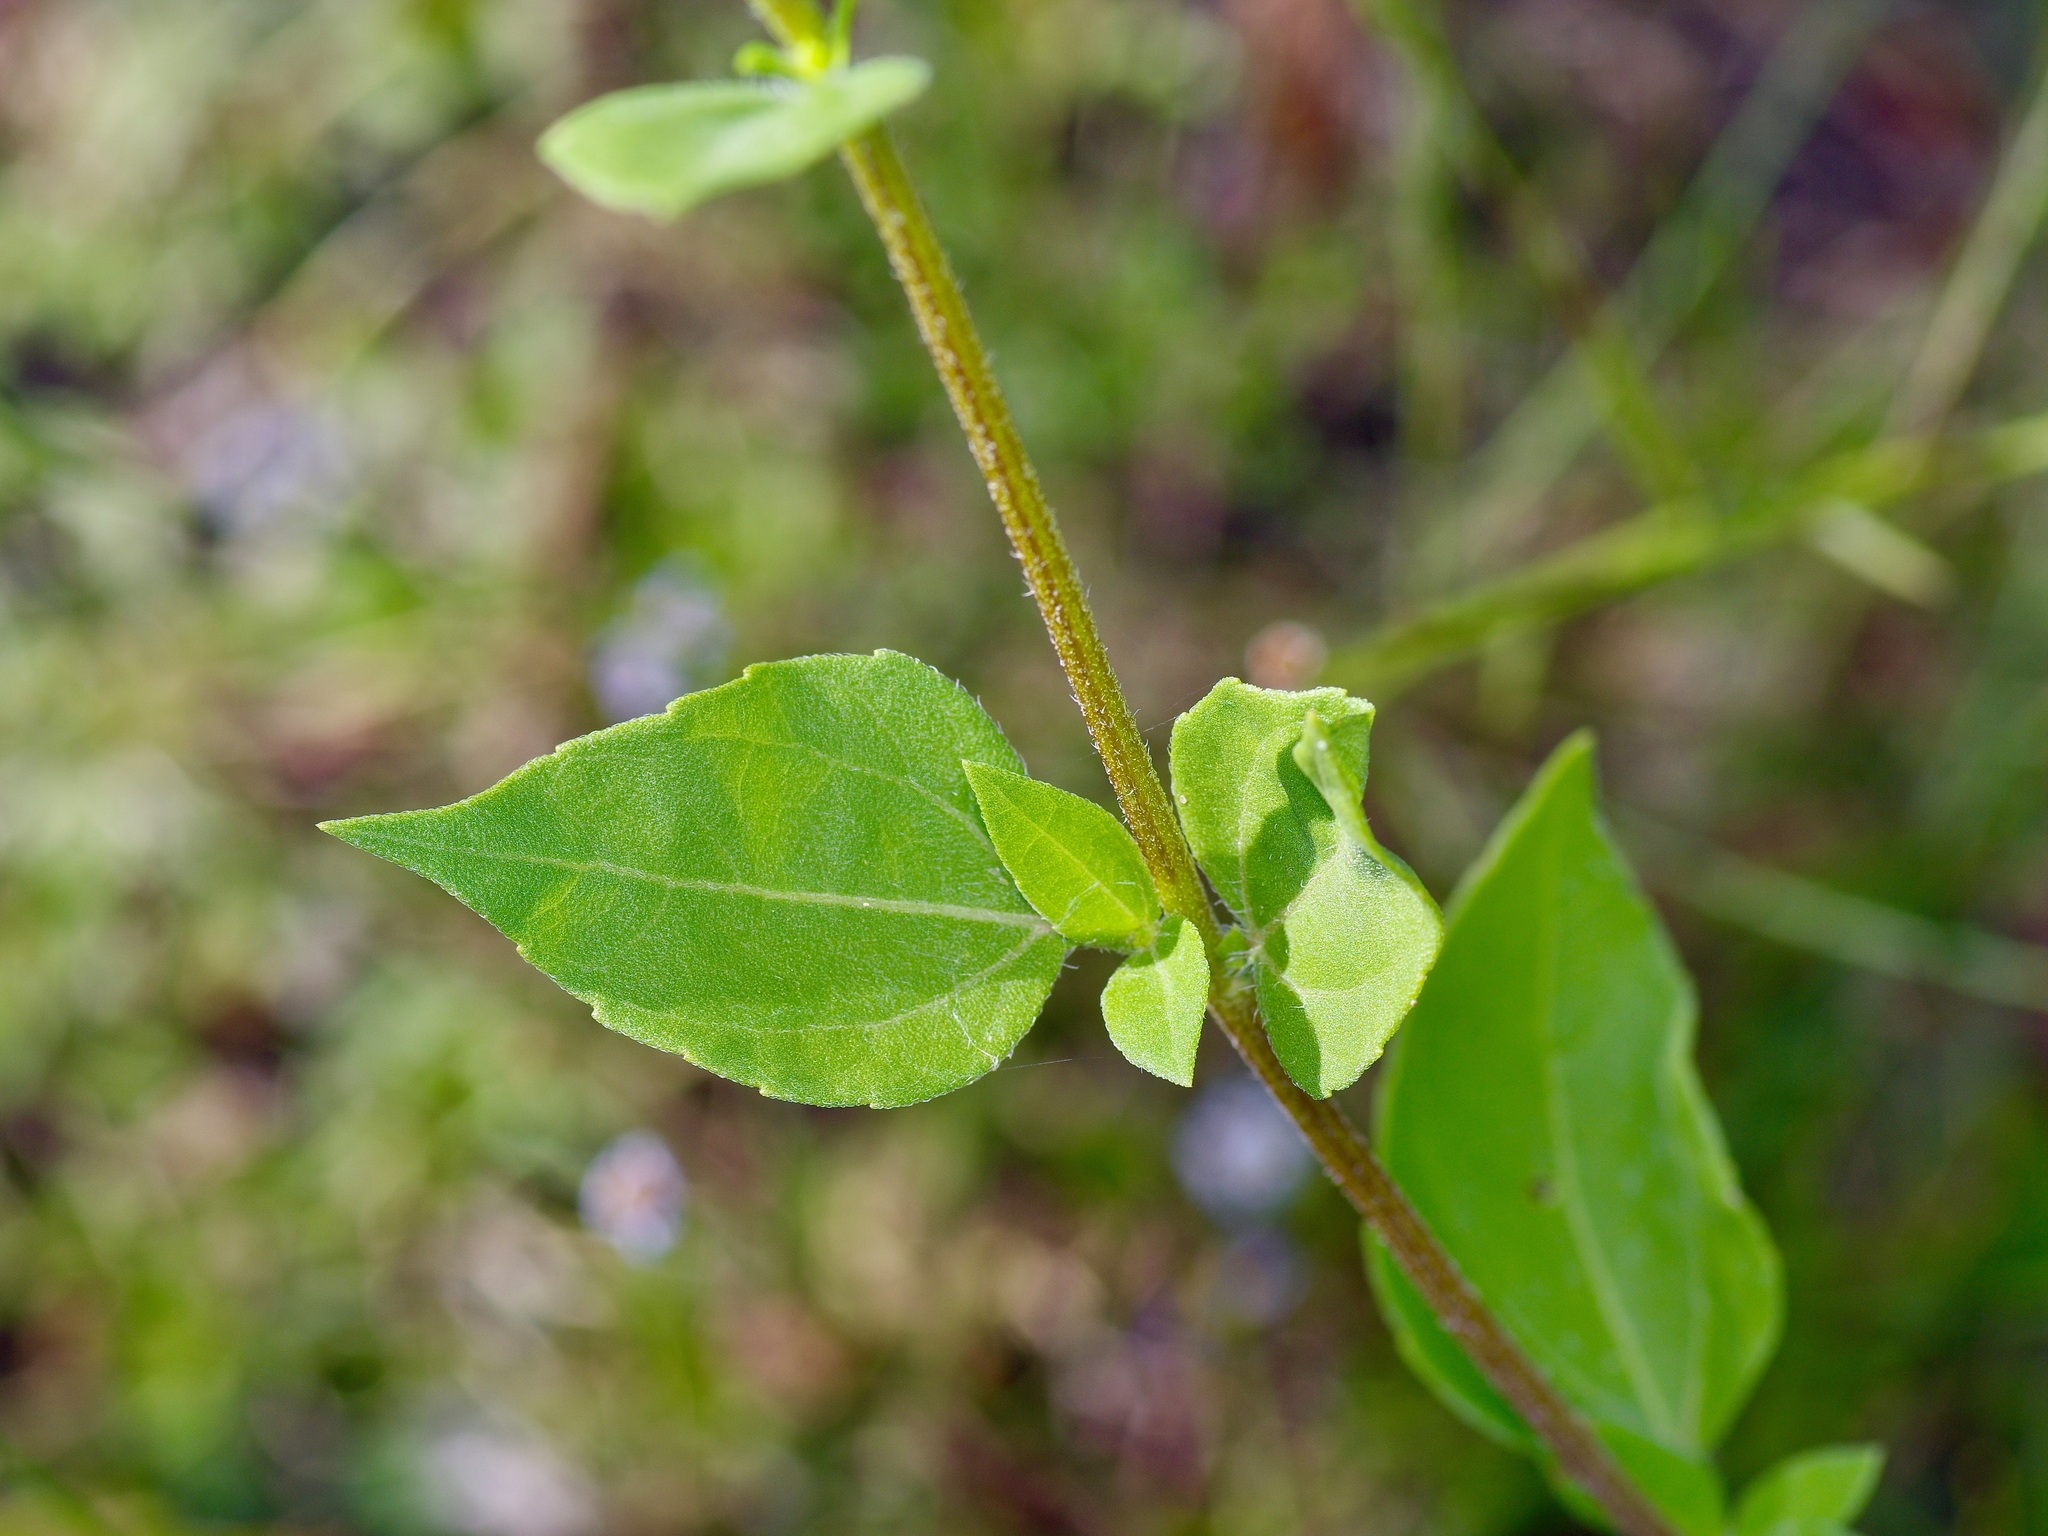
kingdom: Plantae
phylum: Tracheophyta
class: Magnoliopsida
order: Asterales
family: Asteraceae
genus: Iva
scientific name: Iva annua
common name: Marsh-elder
